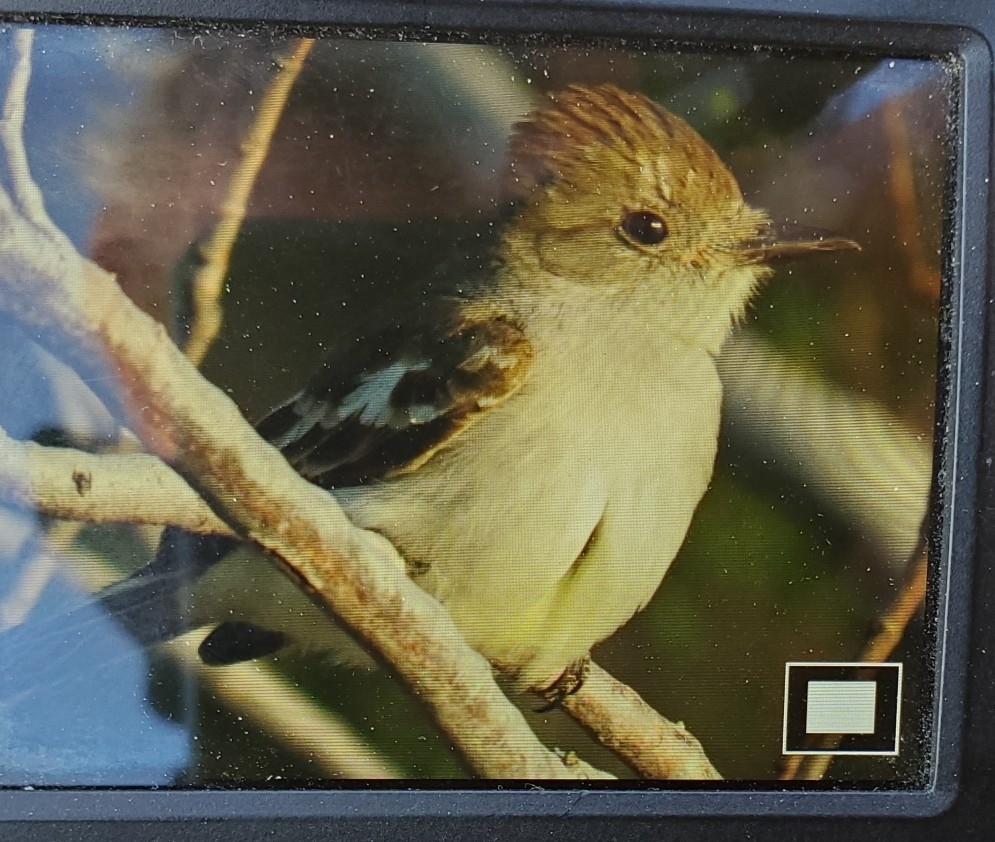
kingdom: Animalia
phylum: Chordata
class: Aves
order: Passeriformes
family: Tyrannidae
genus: Myiarchus
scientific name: Myiarchus cinerascens
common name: Ash-throated flycatcher
